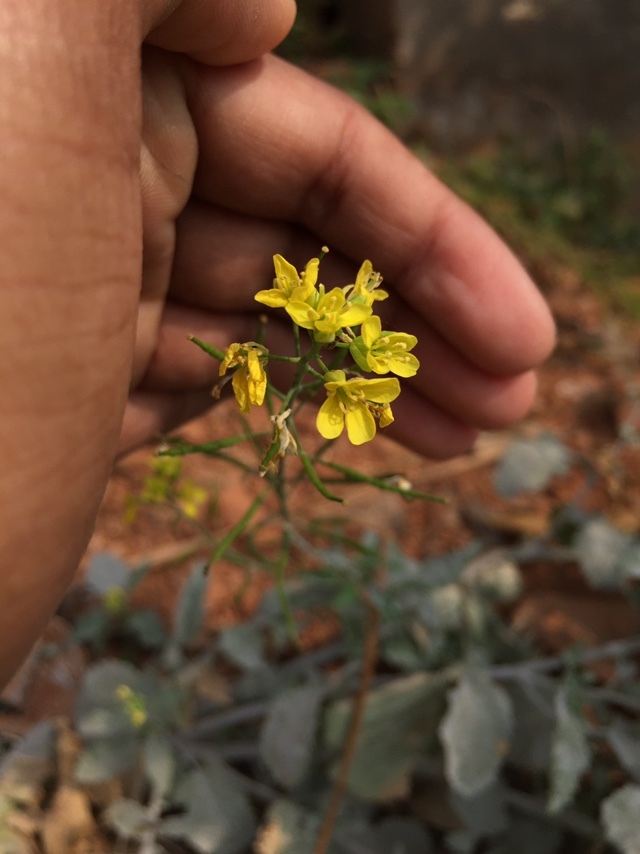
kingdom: Plantae
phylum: Tracheophyta
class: Magnoliopsida
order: Brassicales
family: Brassicaceae
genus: Rorippa
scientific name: Rorippa indica
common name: Variableleaf yellowcress
